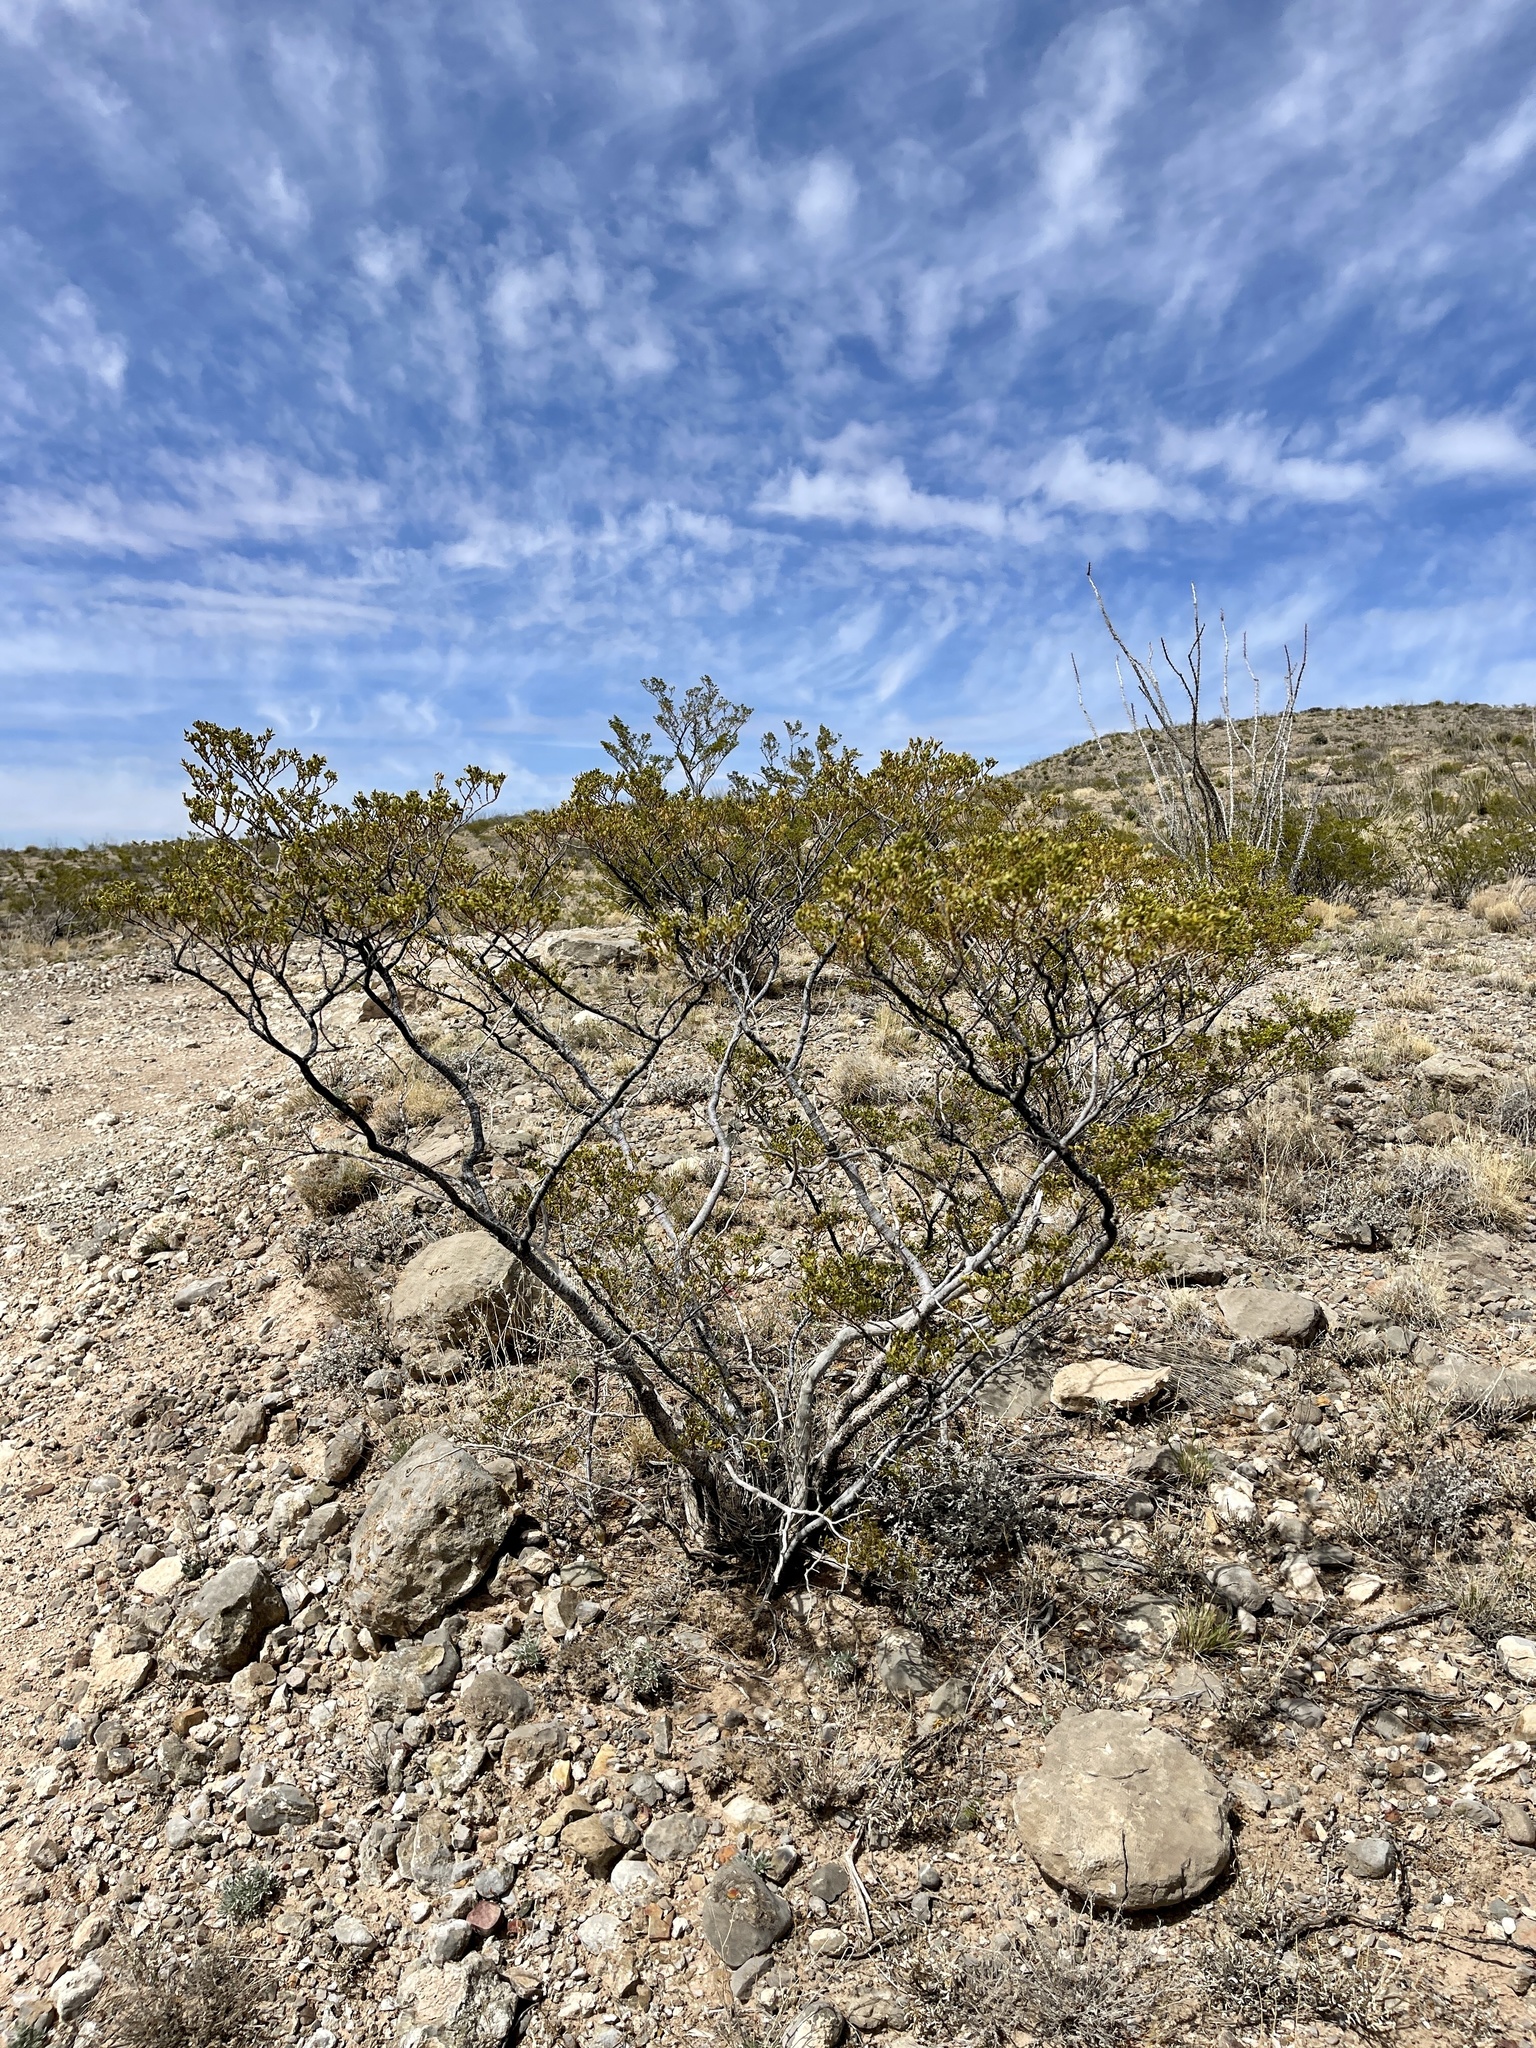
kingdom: Plantae
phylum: Tracheophyta
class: Magnoliopsida
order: Zygophyllales
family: Zygophyllaceae
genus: Larrea
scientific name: Larrea tridentata
